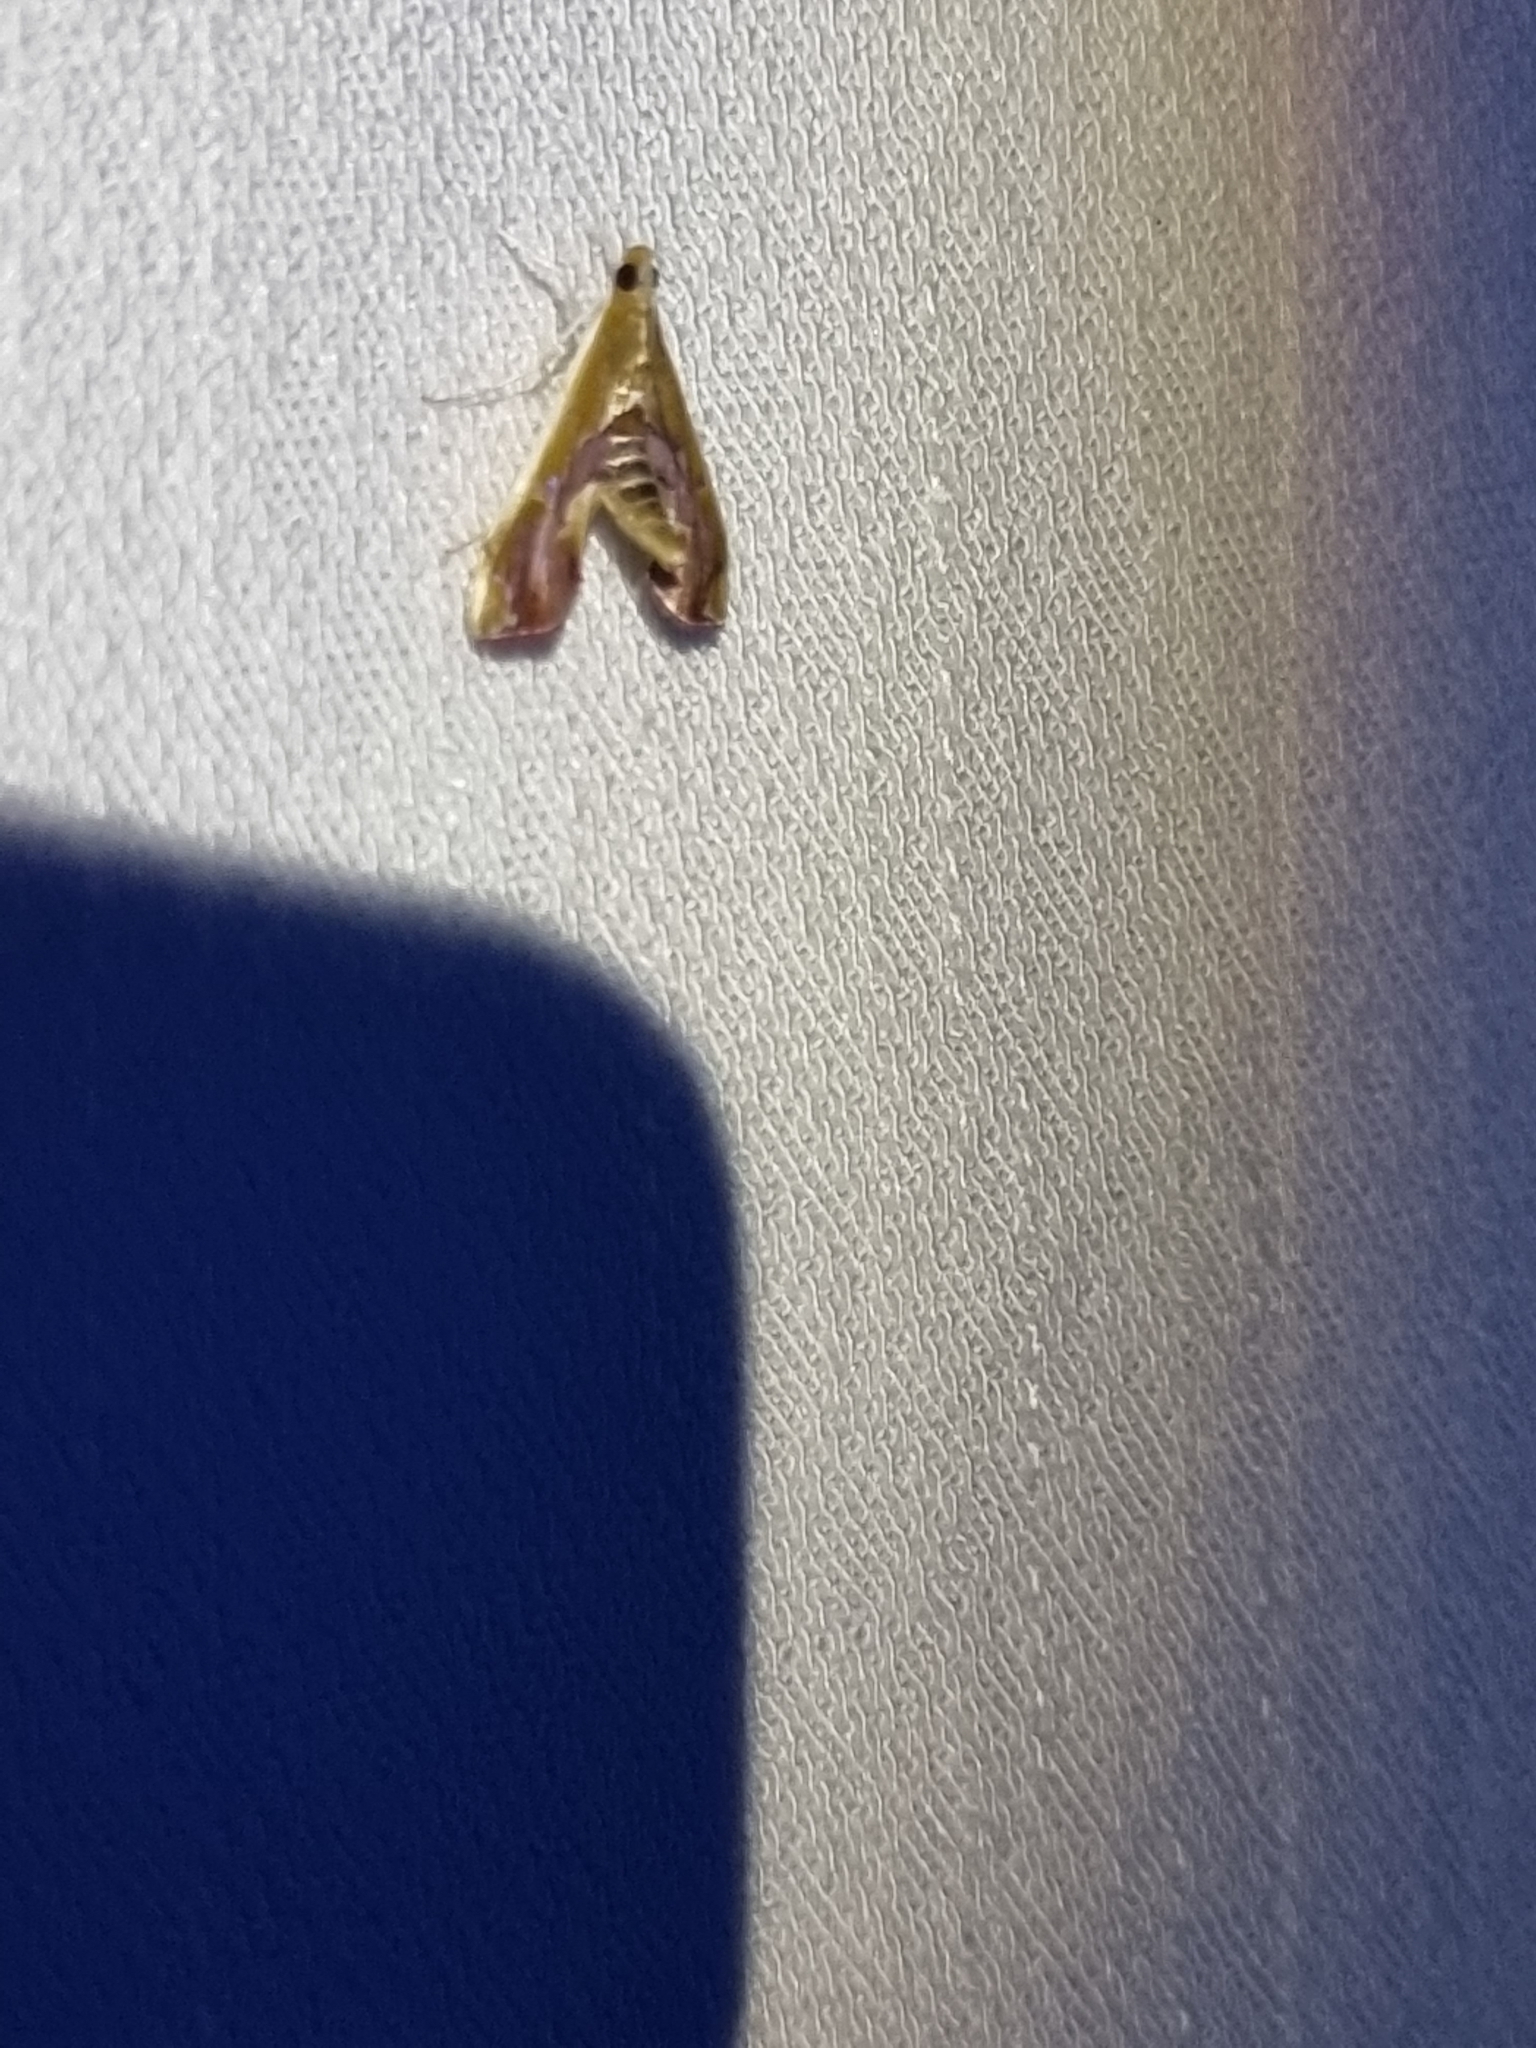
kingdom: Animalia
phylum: Arthropoda
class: Insecta
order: Lepidoptera
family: Crambidae
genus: Agathodes
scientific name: Agathodes ostentalis
